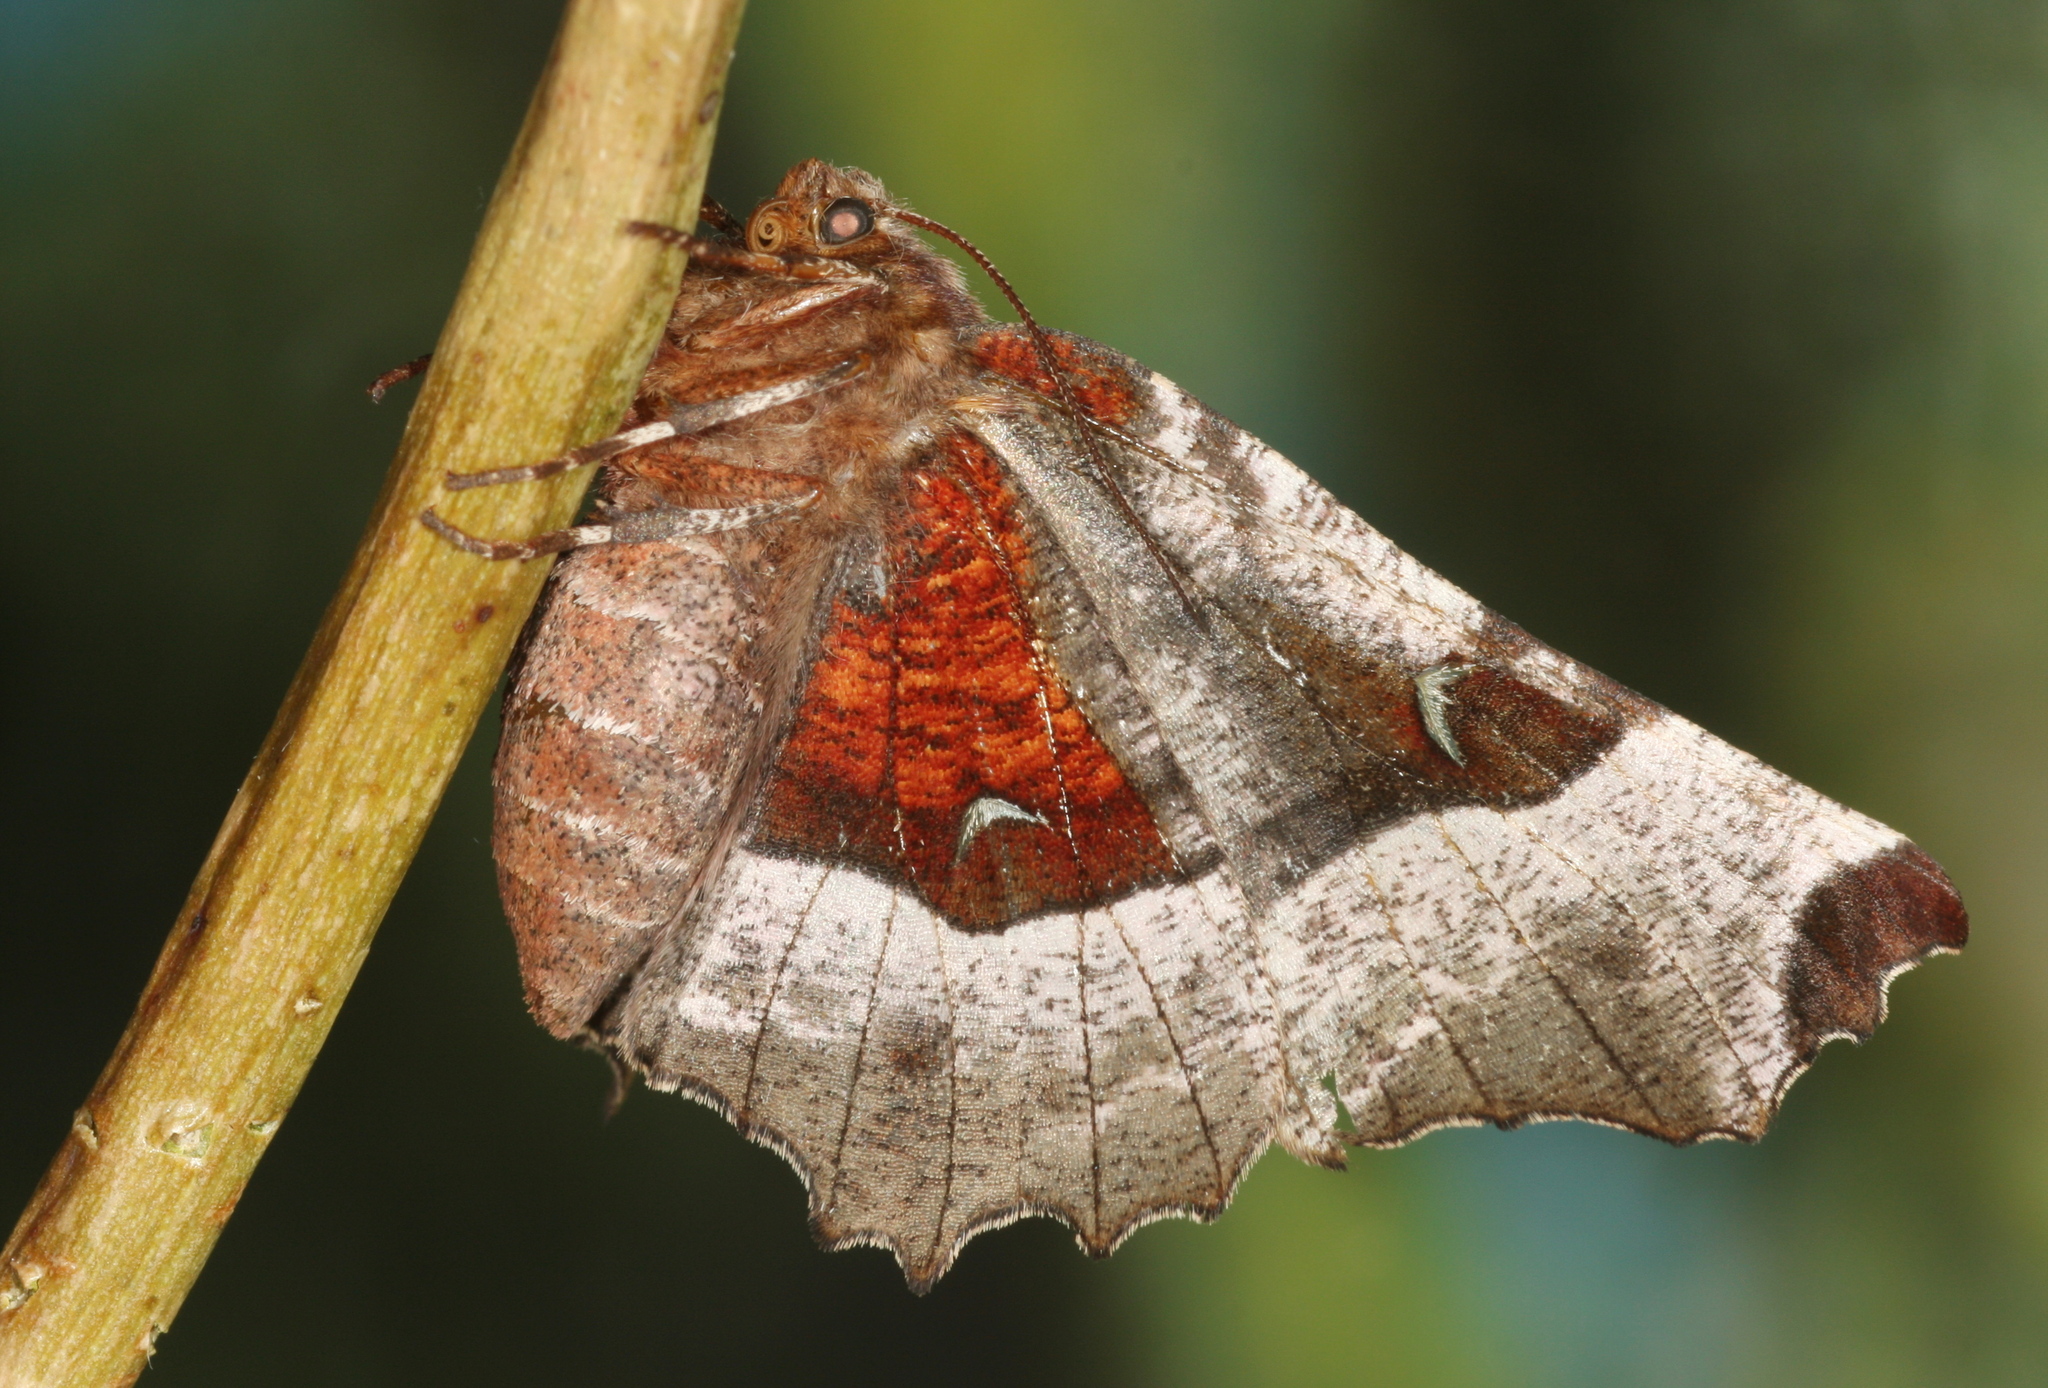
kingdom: Animalia
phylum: Arthropoda
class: Insecta
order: Lepidoptera
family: Geometridae
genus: Selenia
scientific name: Selenia tetralunaria
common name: Purple thorn
